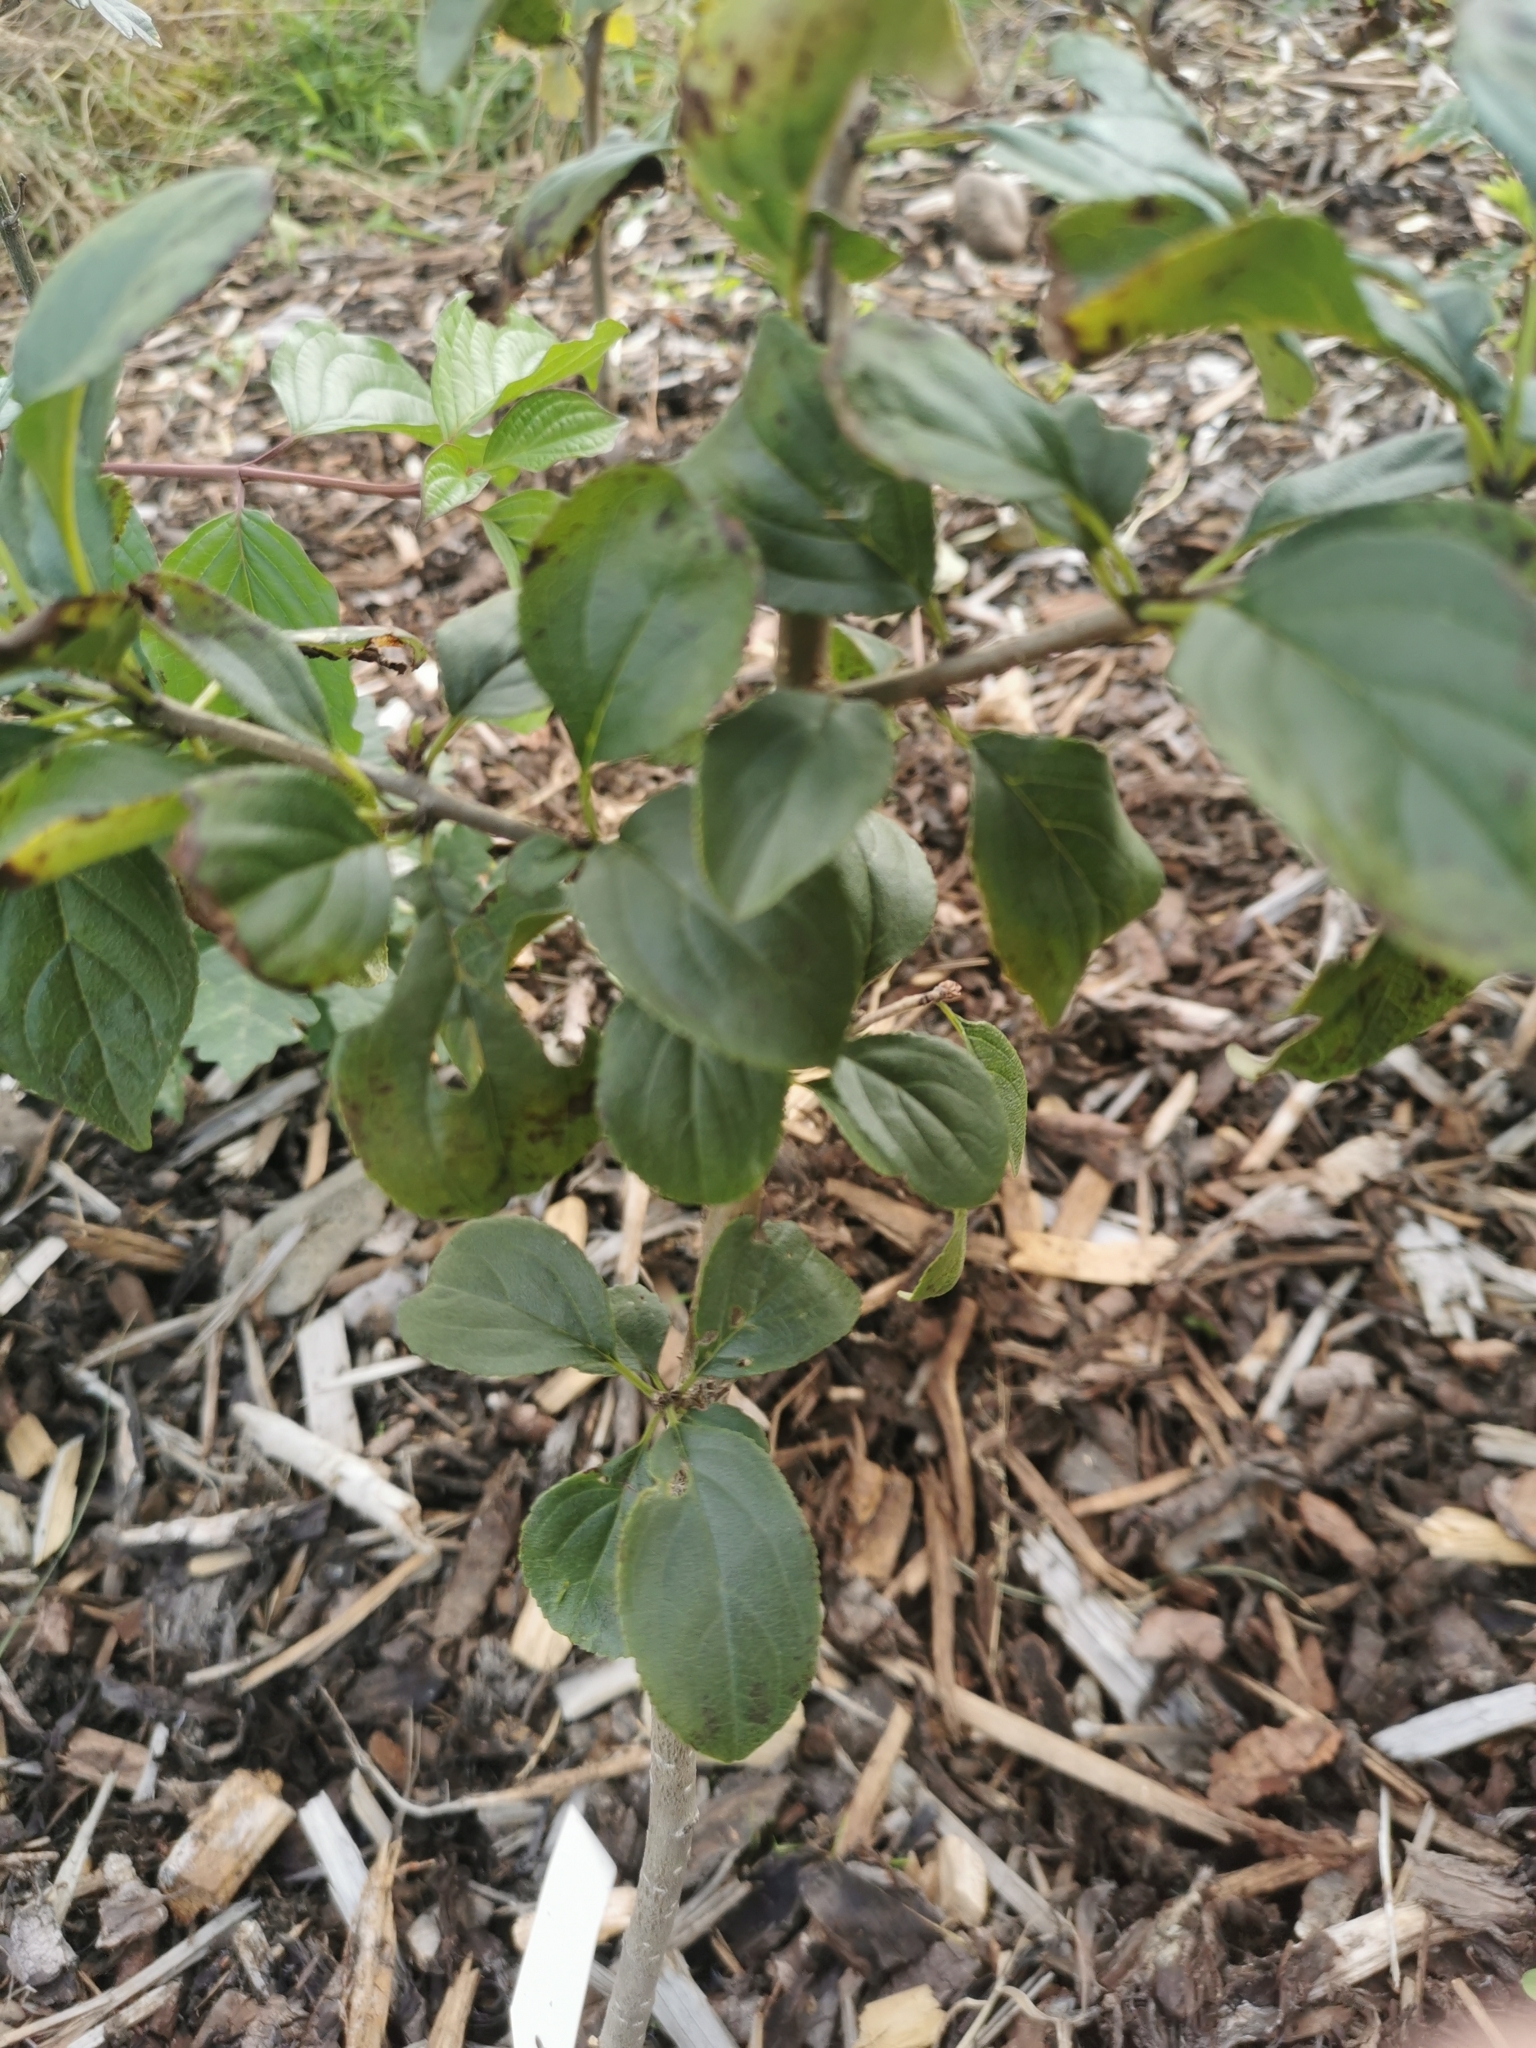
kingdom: Plantae
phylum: Tracheophyta
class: Magnoliopsida
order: Rosales
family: Rhamnaceae
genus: Rhamnus
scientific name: Rhamnus cathartica
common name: Common buckthorn
